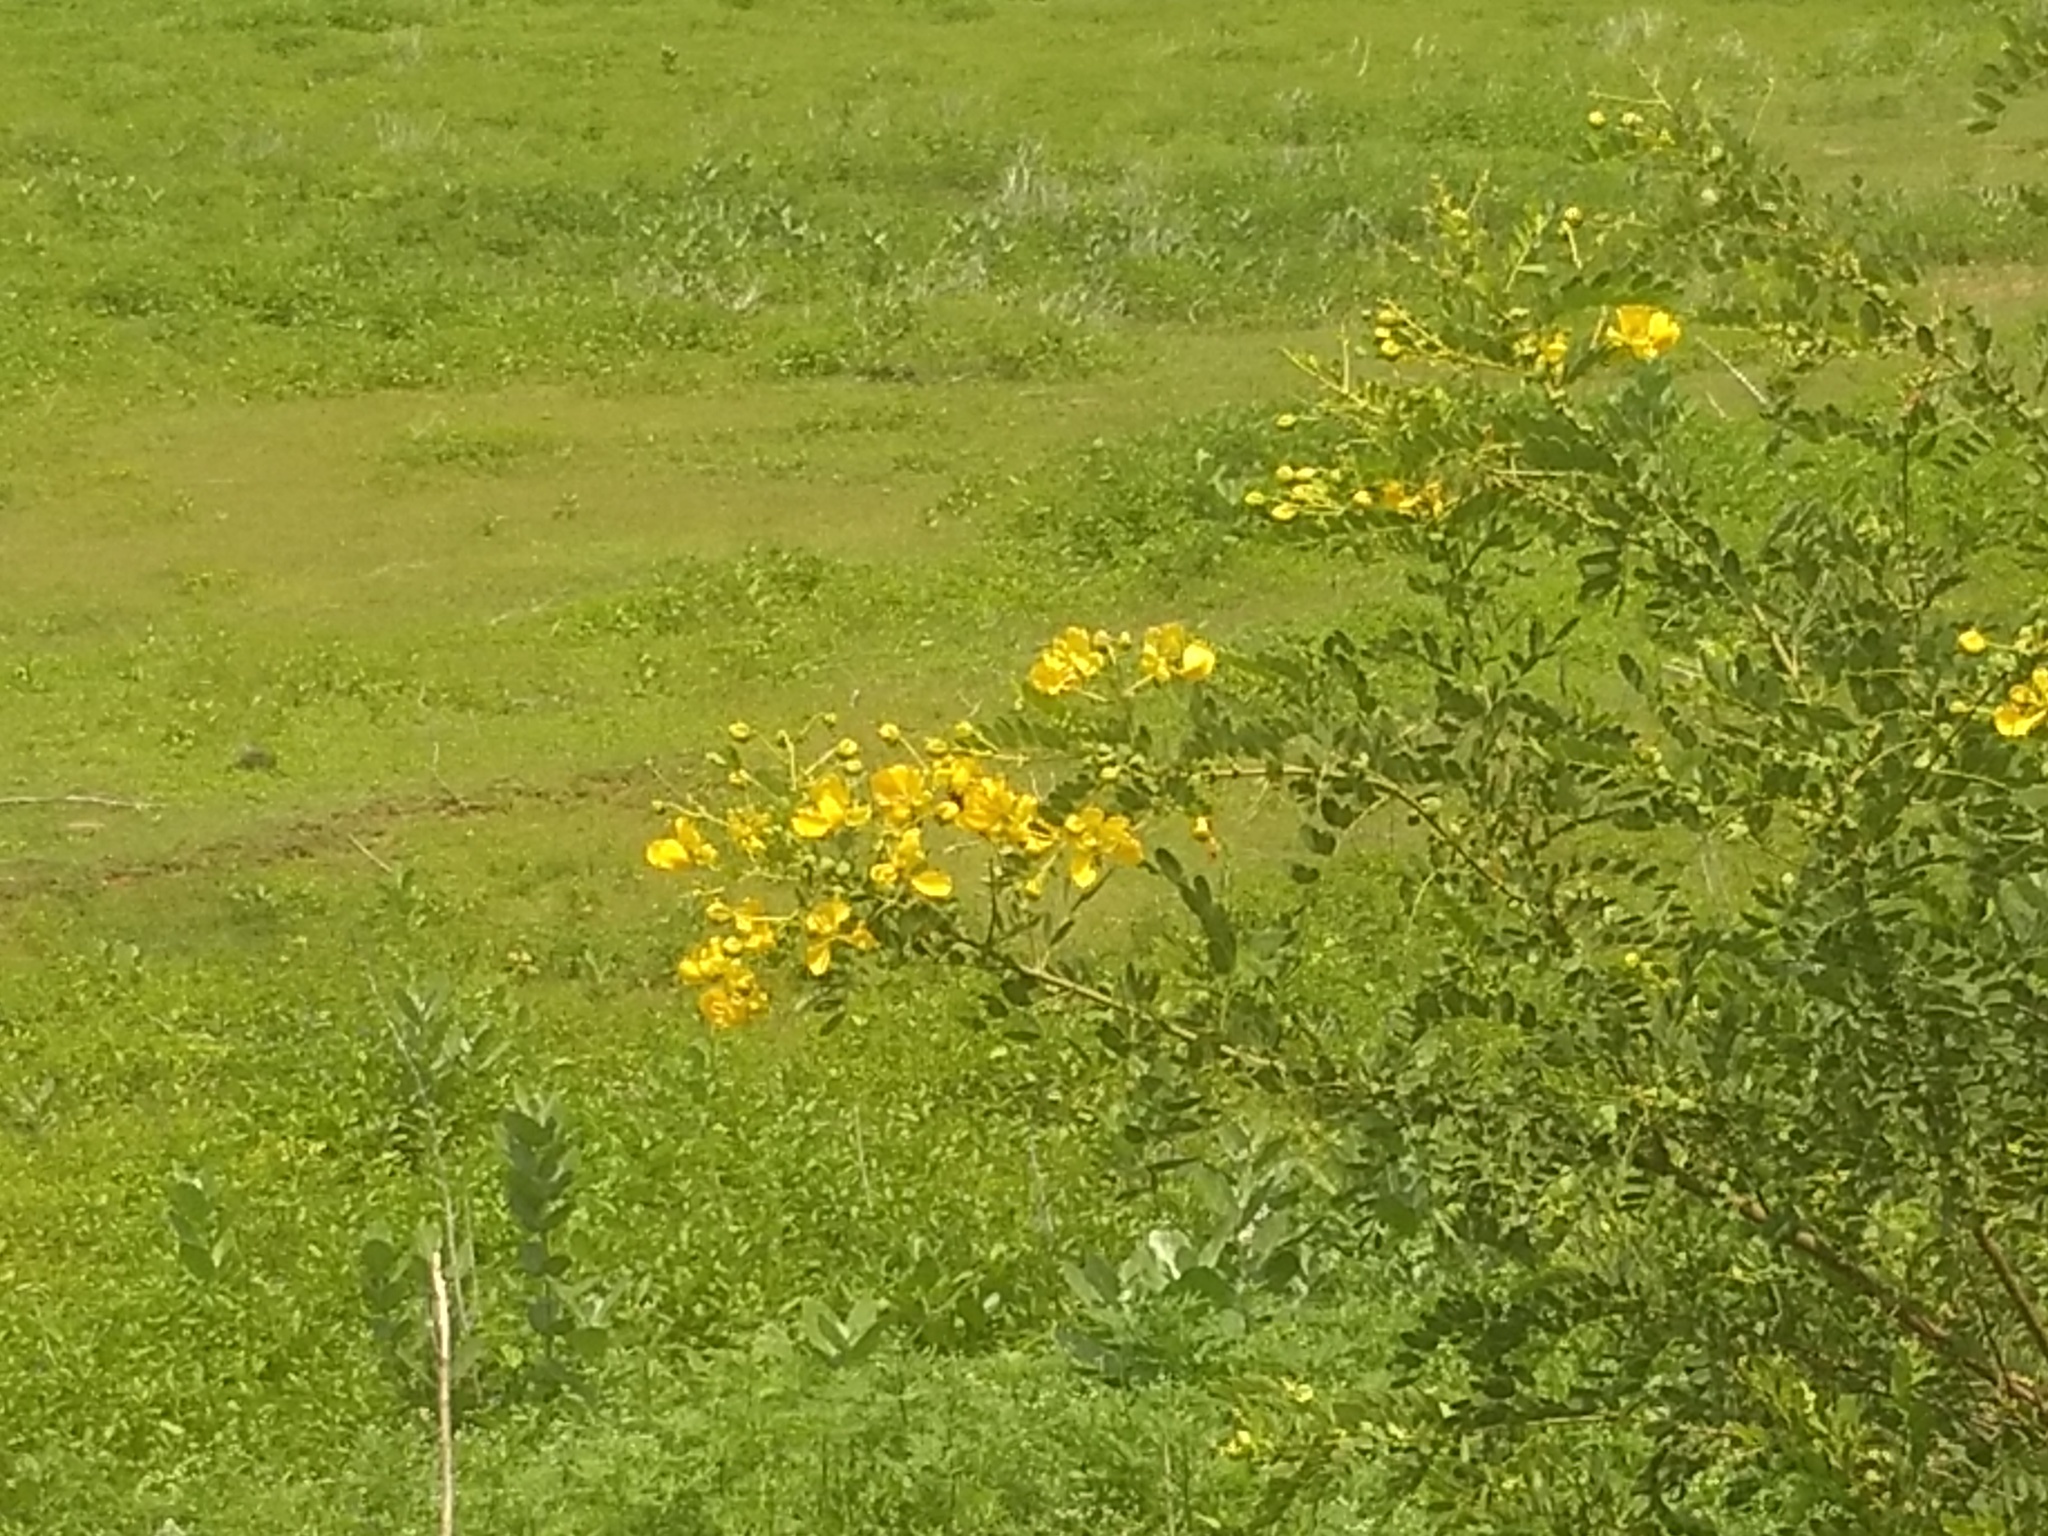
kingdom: Plantae
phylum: Tracheophyta
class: Magnoliopsida
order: Fabales
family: Fabaceae
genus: Senna
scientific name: Senna auriculata
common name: Tanner's cassia
